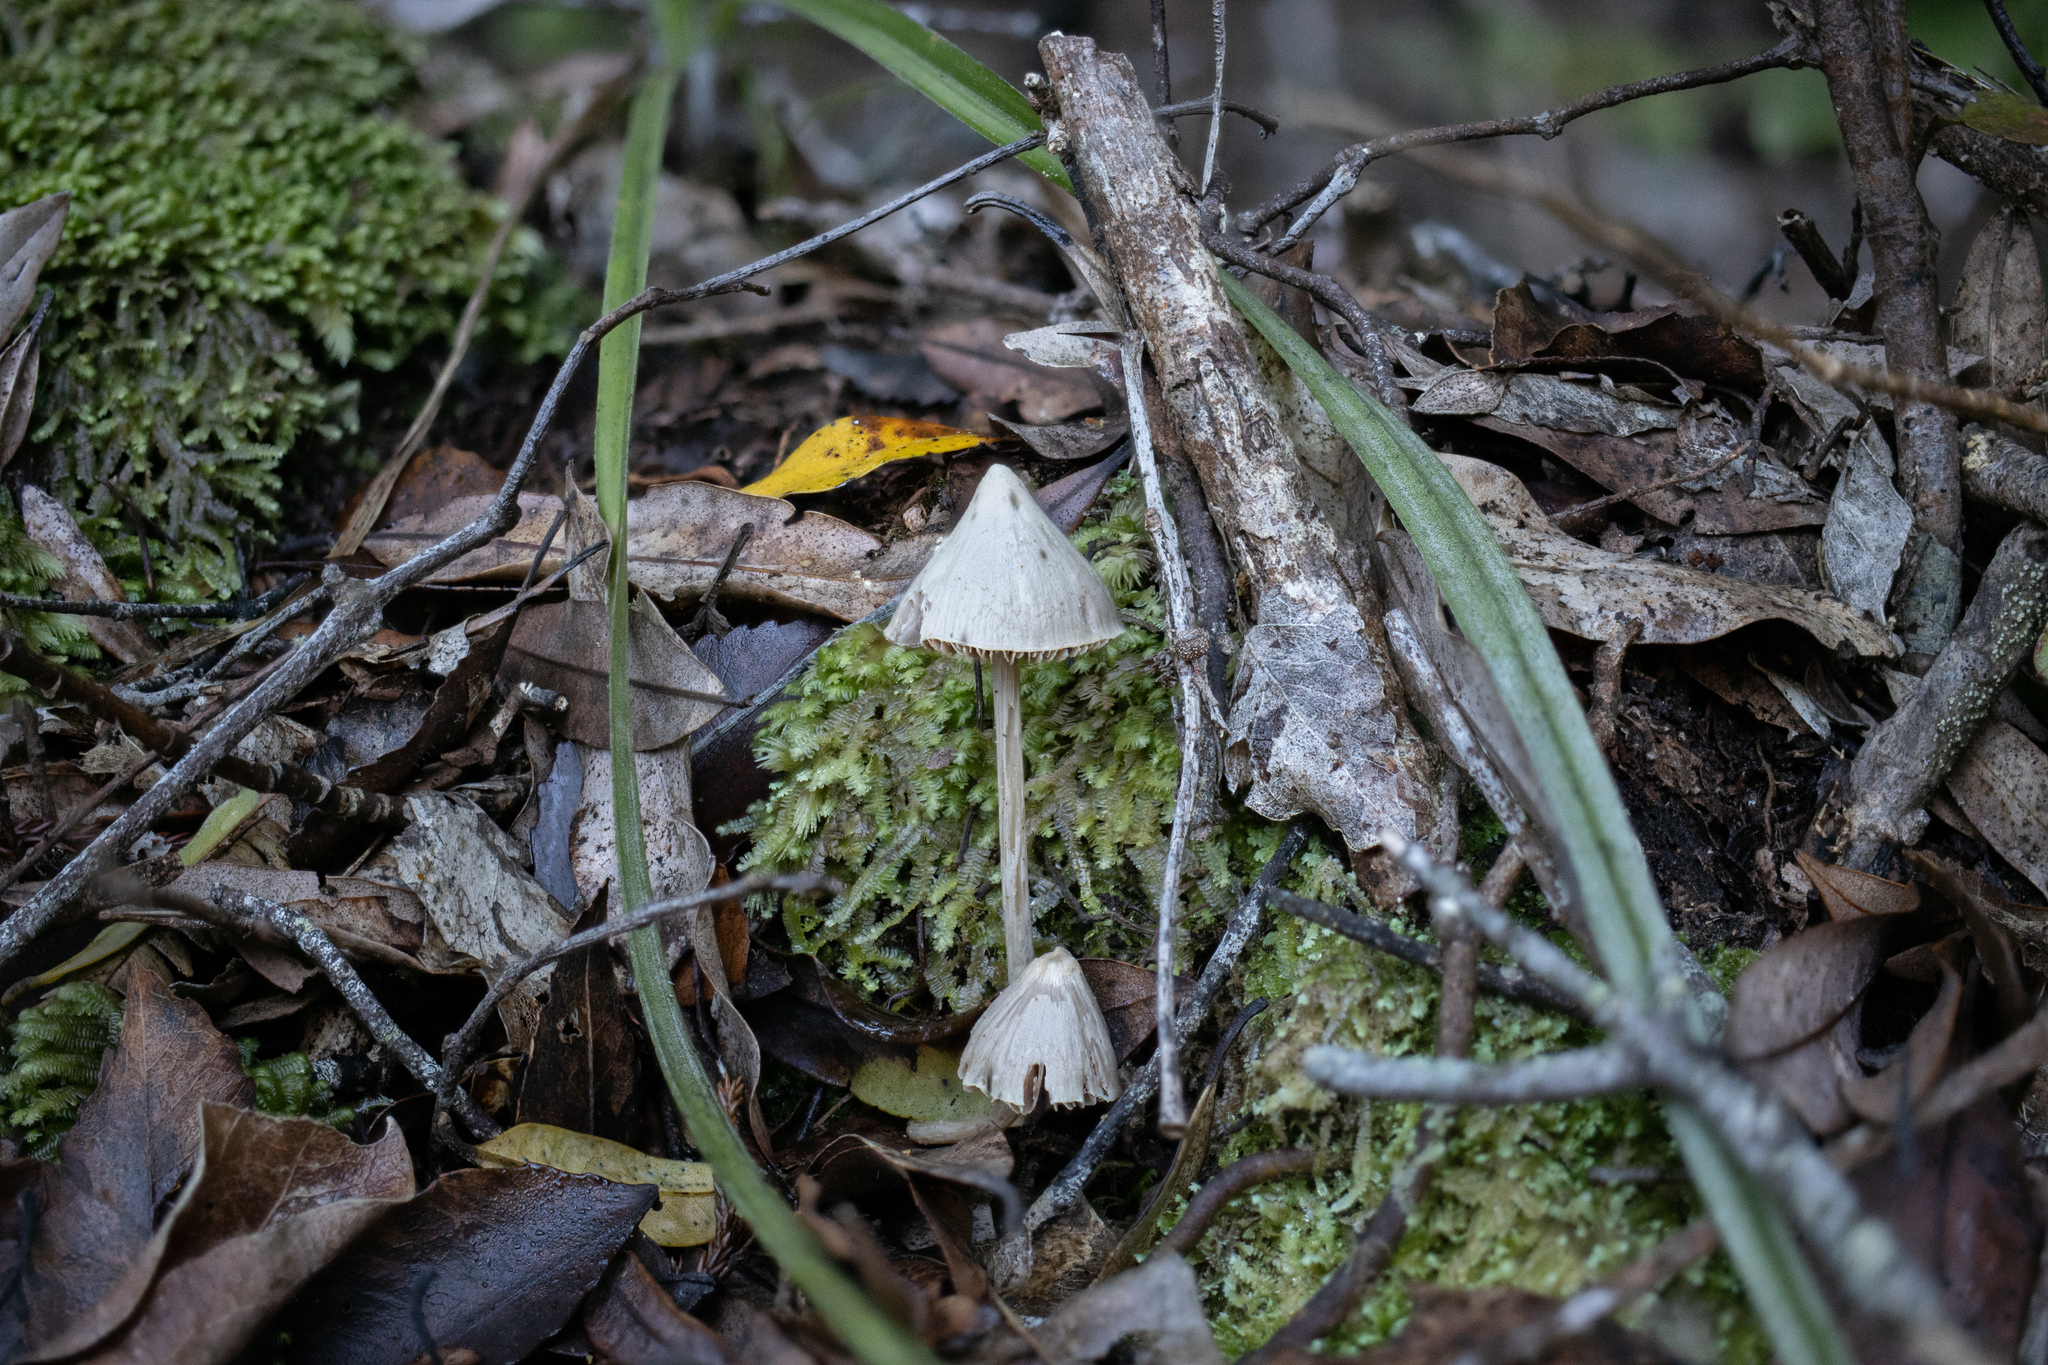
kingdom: Fungi
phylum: Basidiomycota
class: Agaricomycetes
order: Agaricales
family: Entolomataceae
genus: Entoloma
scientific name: Entoloma canoconicum
